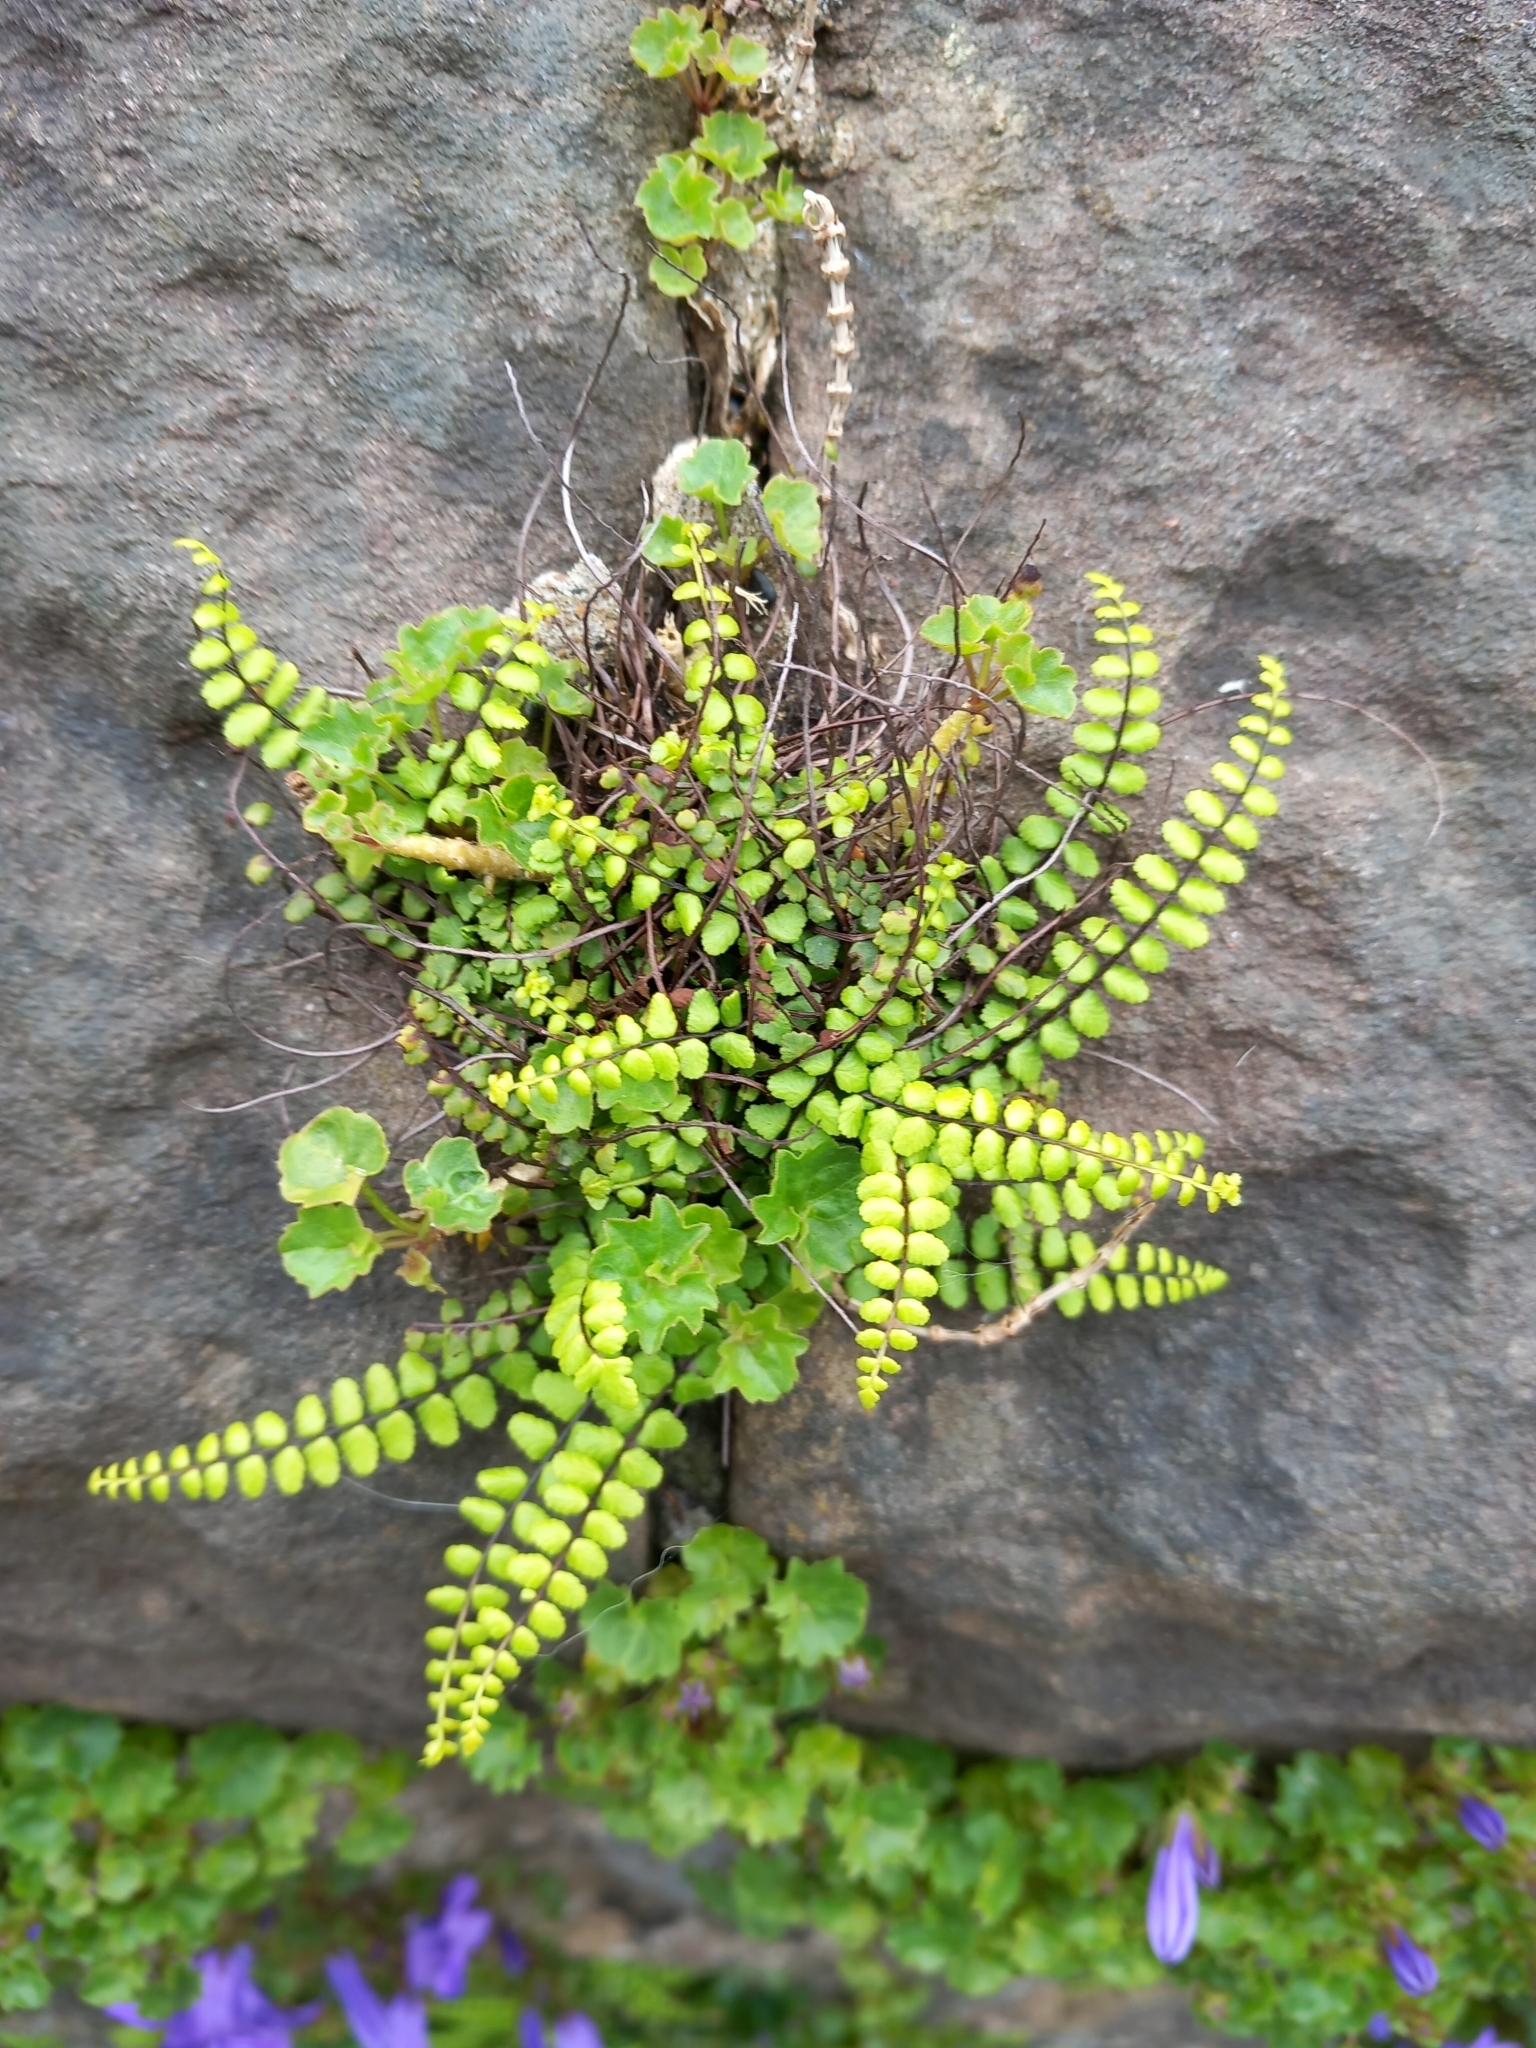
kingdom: Plantae
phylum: Tracheophyta
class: Polypodiopsida
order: Polypodiales
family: Aspleniaceae
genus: Asplenium
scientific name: Asplenium trichomanes
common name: Maidenhair spleenwort
